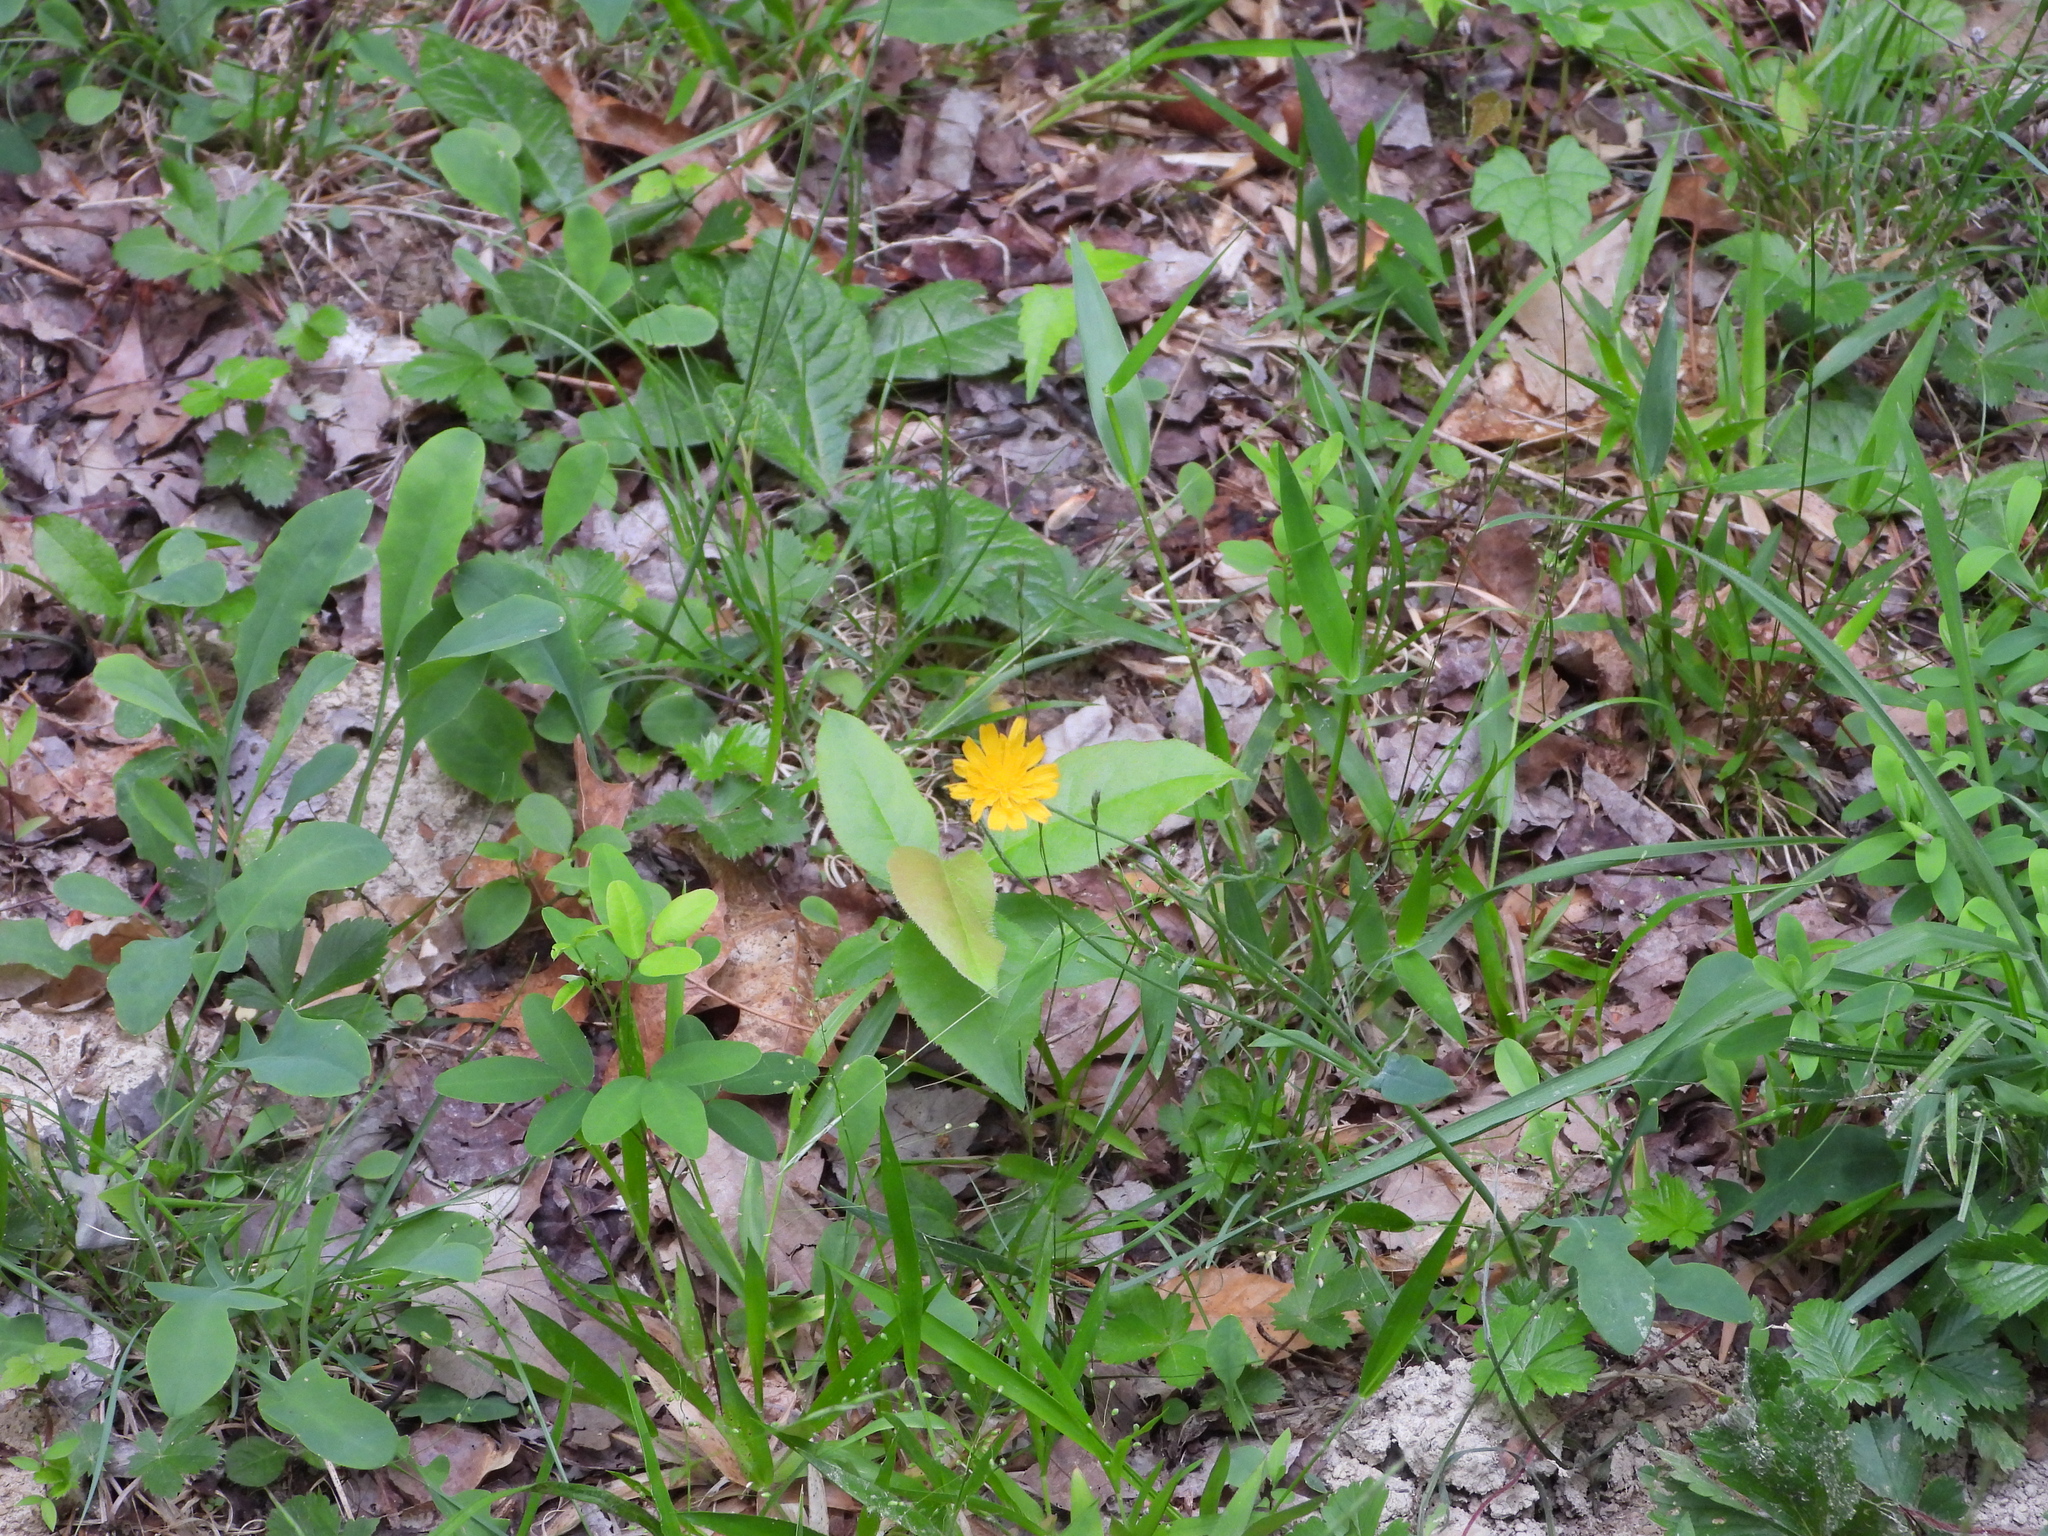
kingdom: Plantae
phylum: Tracheophyta
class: Magnoliopsida
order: Asterales
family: Asteraceae
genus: Krigia
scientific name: Krigia biflora
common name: Orange dwarf-dandelion
